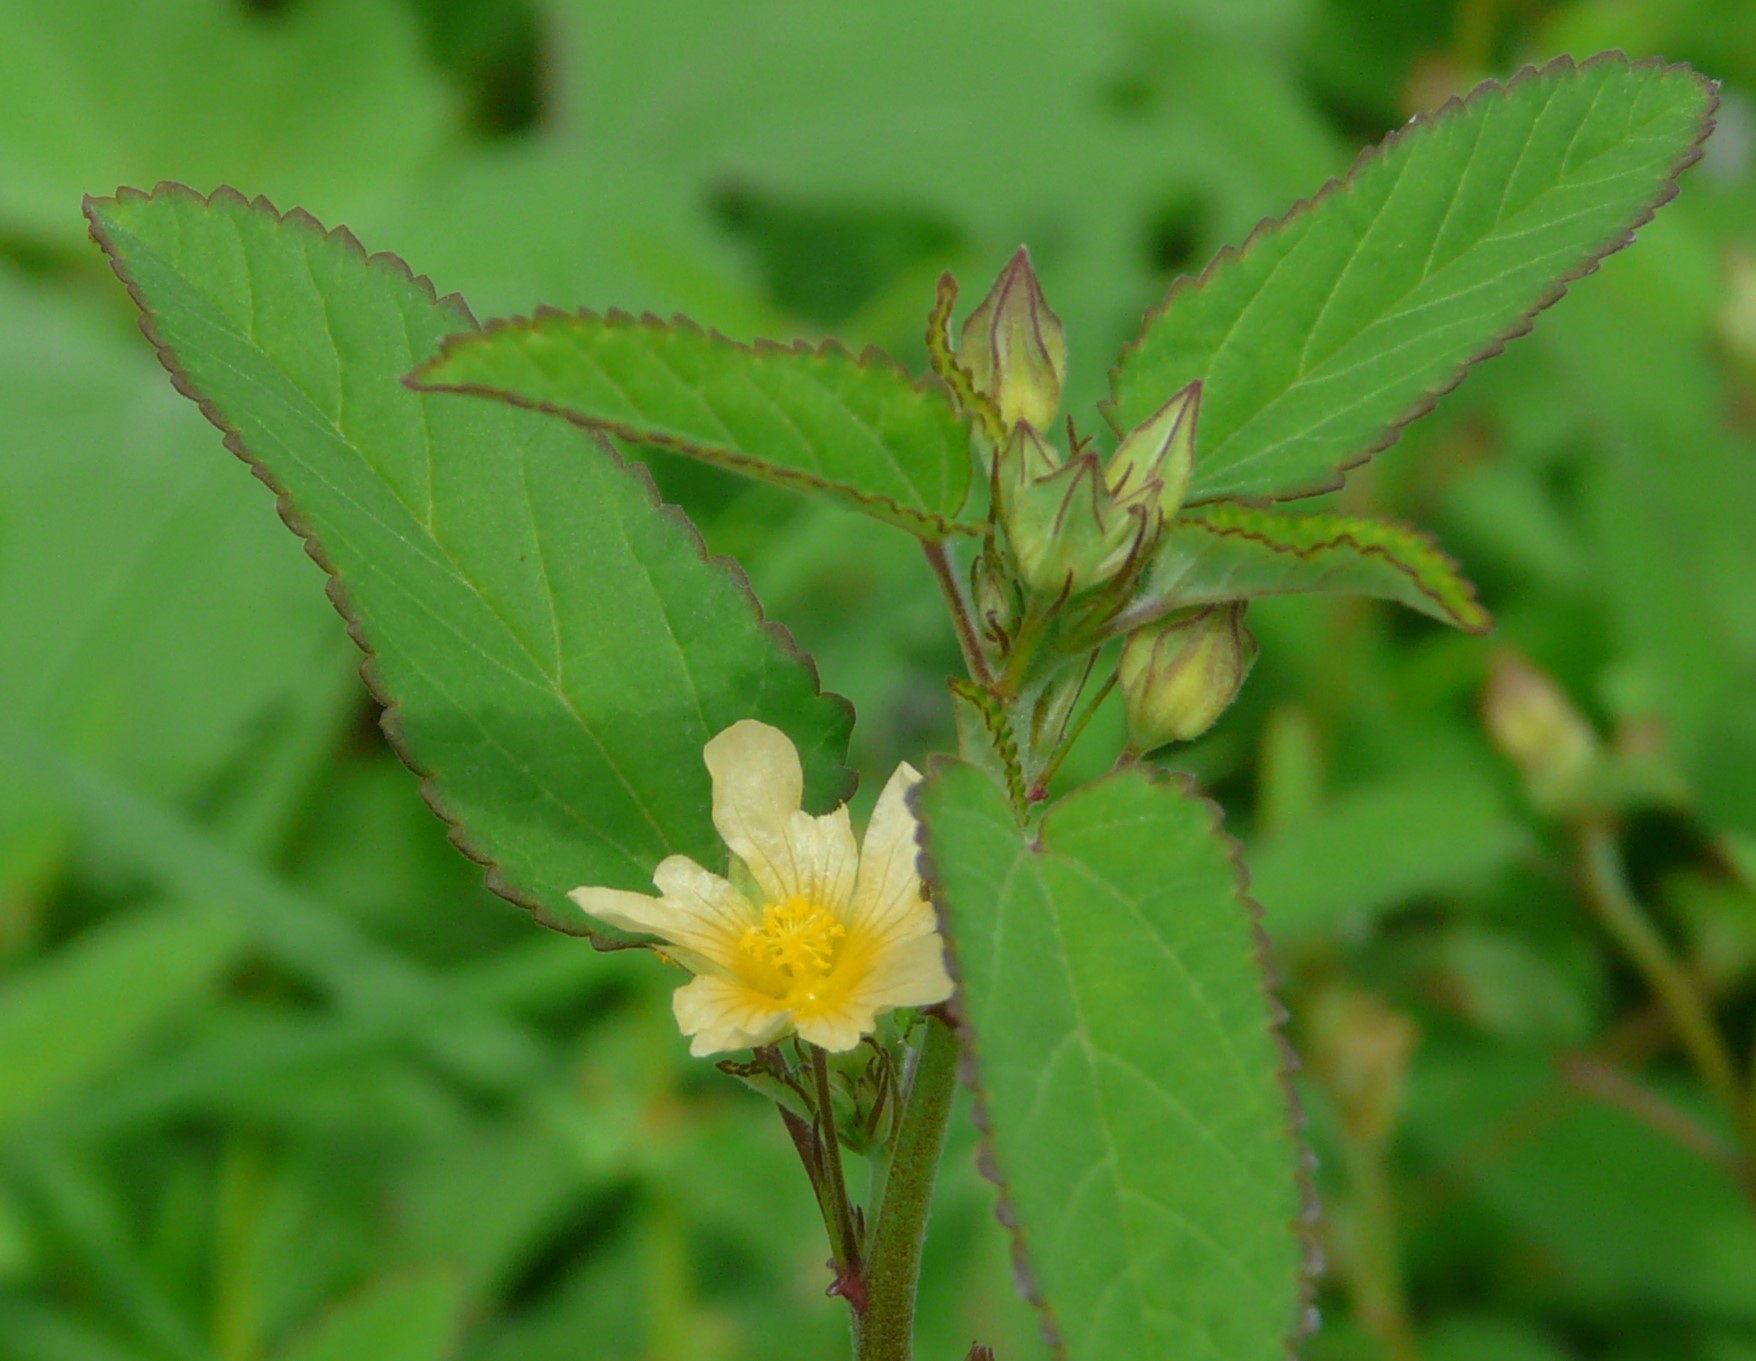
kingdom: Plantae
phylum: Tracheophyta
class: Magnoliopsida
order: Malvales
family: Malvaceae
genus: Sida
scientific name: Sida spinosa
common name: Prickly fanpetals
